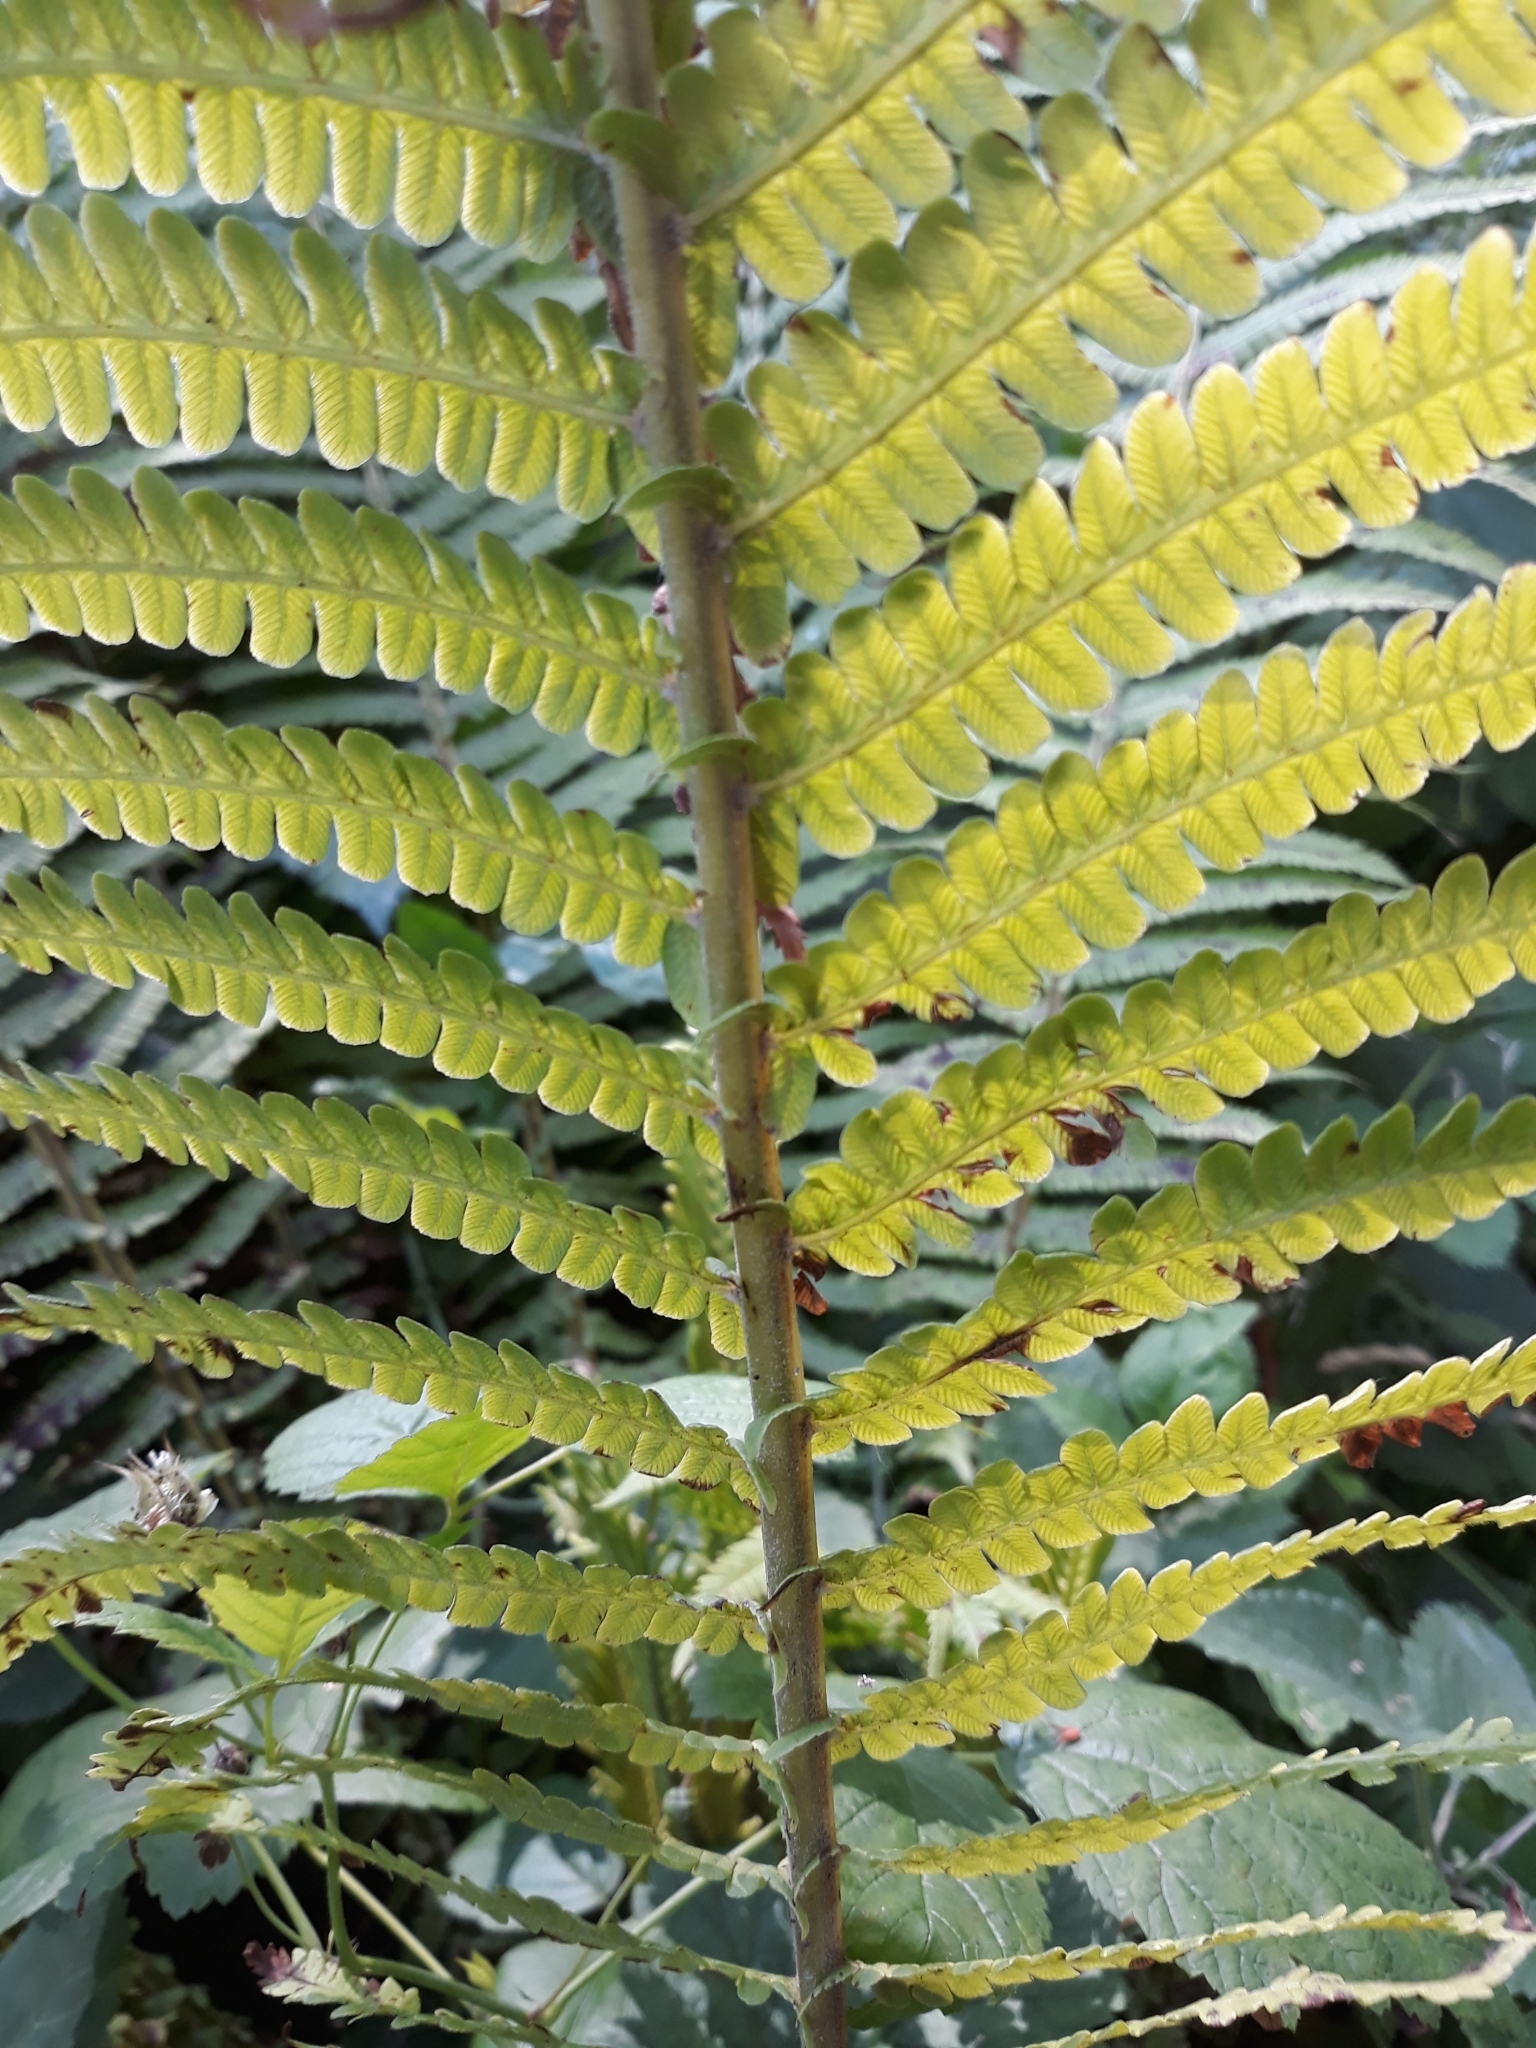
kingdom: Plantae
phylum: Tracheophyta
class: Polypodiopsida
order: Polypodiales
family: Onocleaceae
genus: Matteuccia
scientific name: Matteuccia struthiopteris
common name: Ostrich fern
